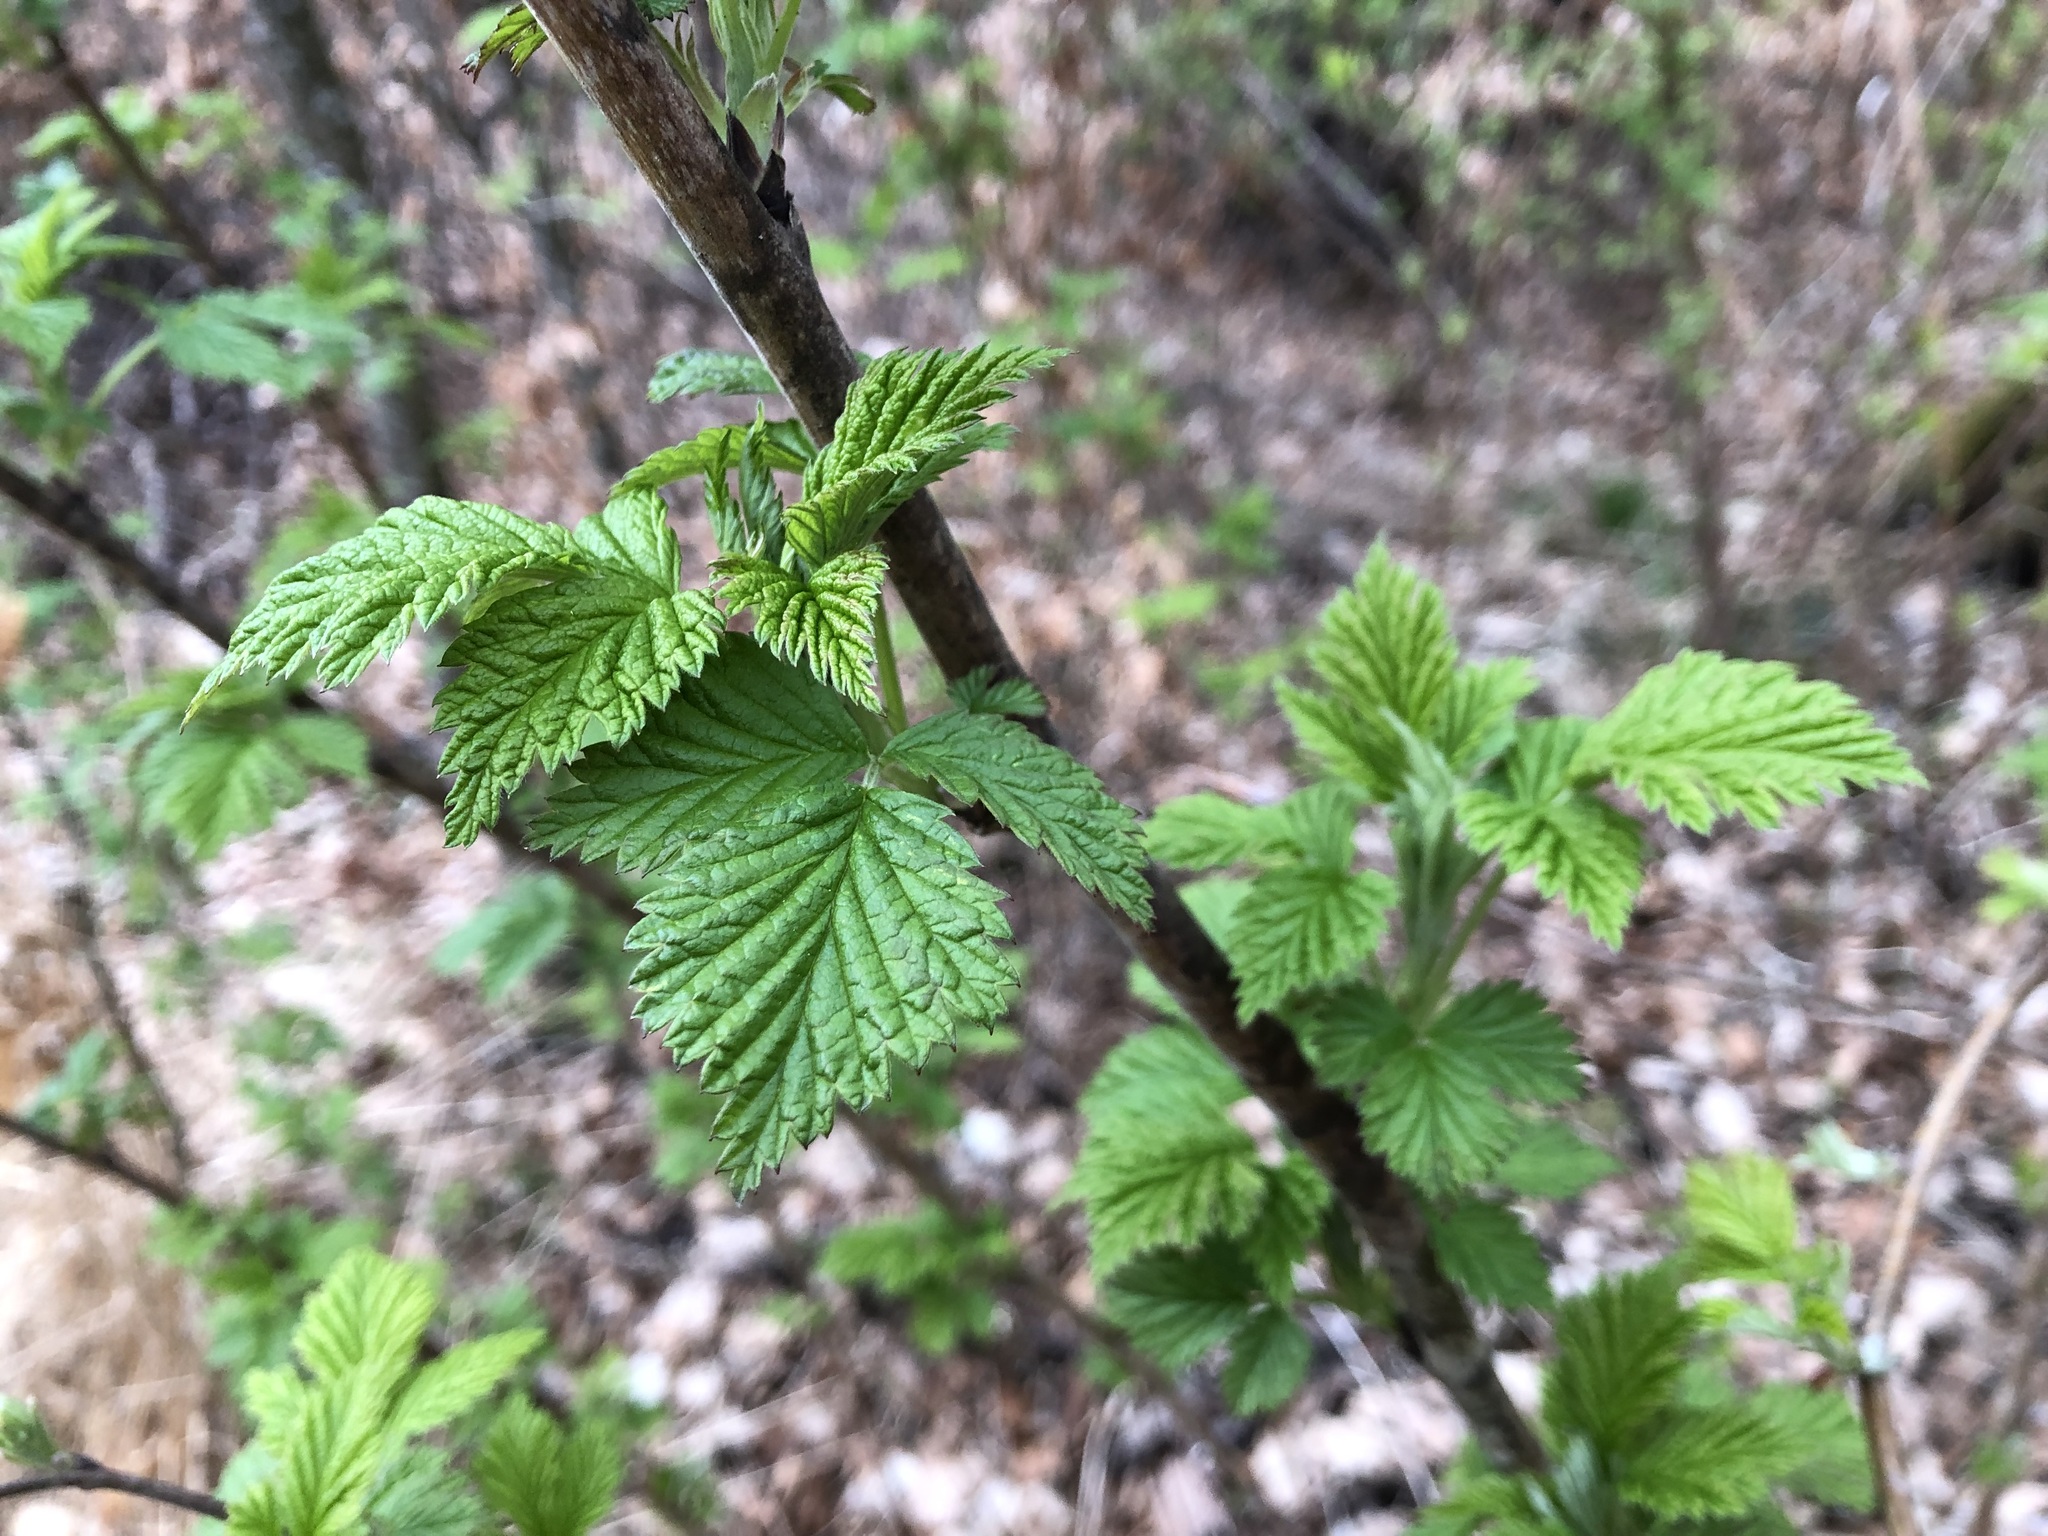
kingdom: Plantae
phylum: Tracheophyta
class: Magnoliopsida
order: Rosales
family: Rosaceae
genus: Rubus
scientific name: Rubus idaeus
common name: Raspberry
